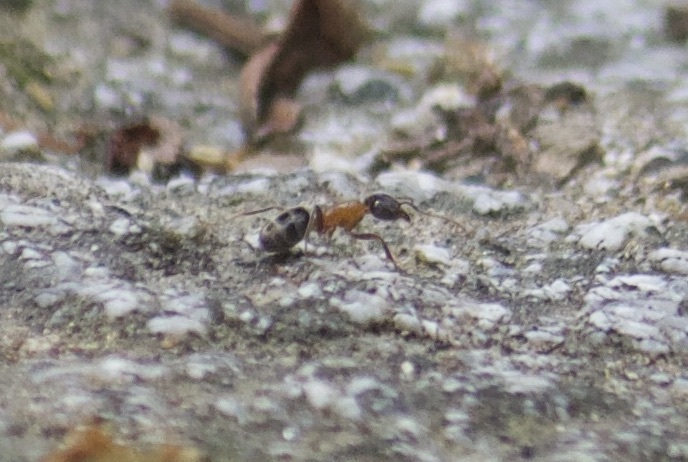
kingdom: Animalia
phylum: Arthropoda
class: Insecta
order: Hymenoptera
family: Formicidae
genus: Liometopum
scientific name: Liometopum occidentale
